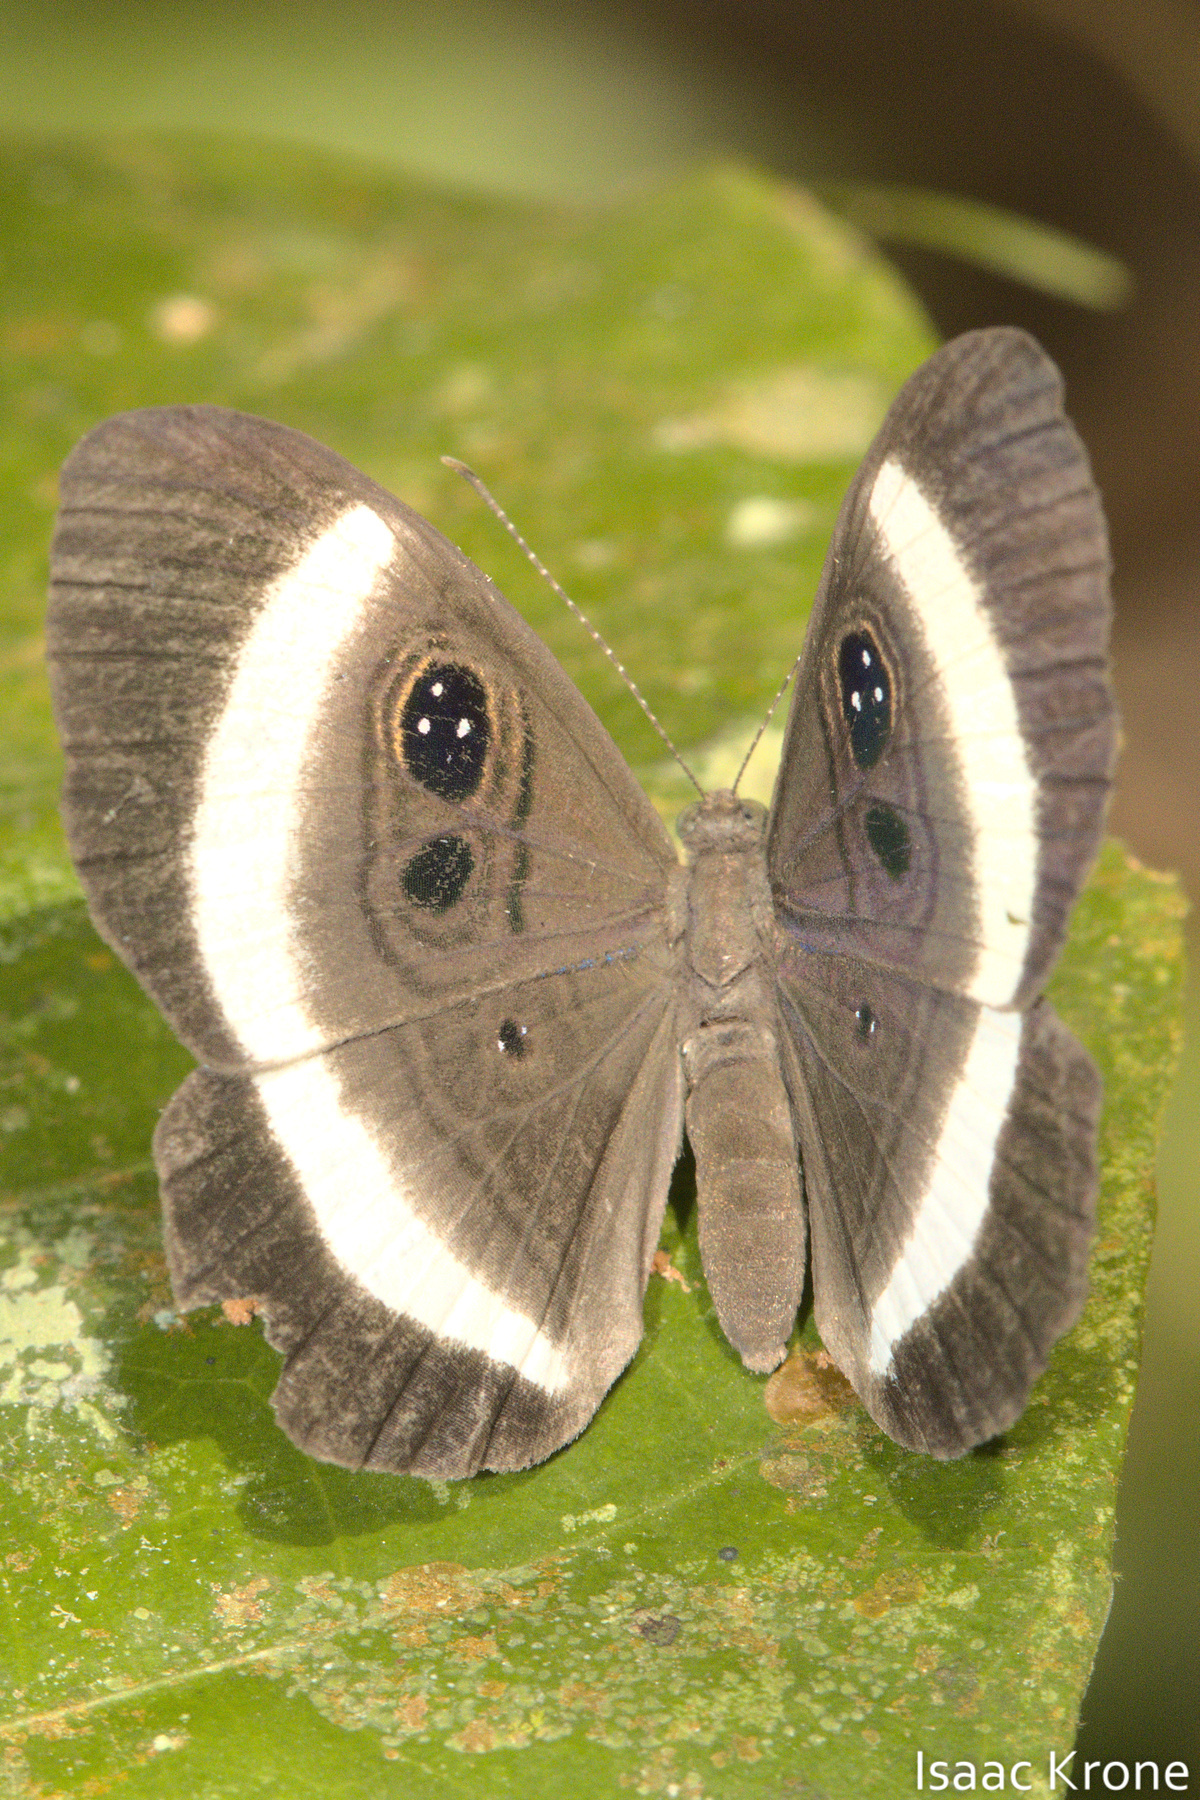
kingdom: Animalia
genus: Mesosemia
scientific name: Mesosemia messeis
